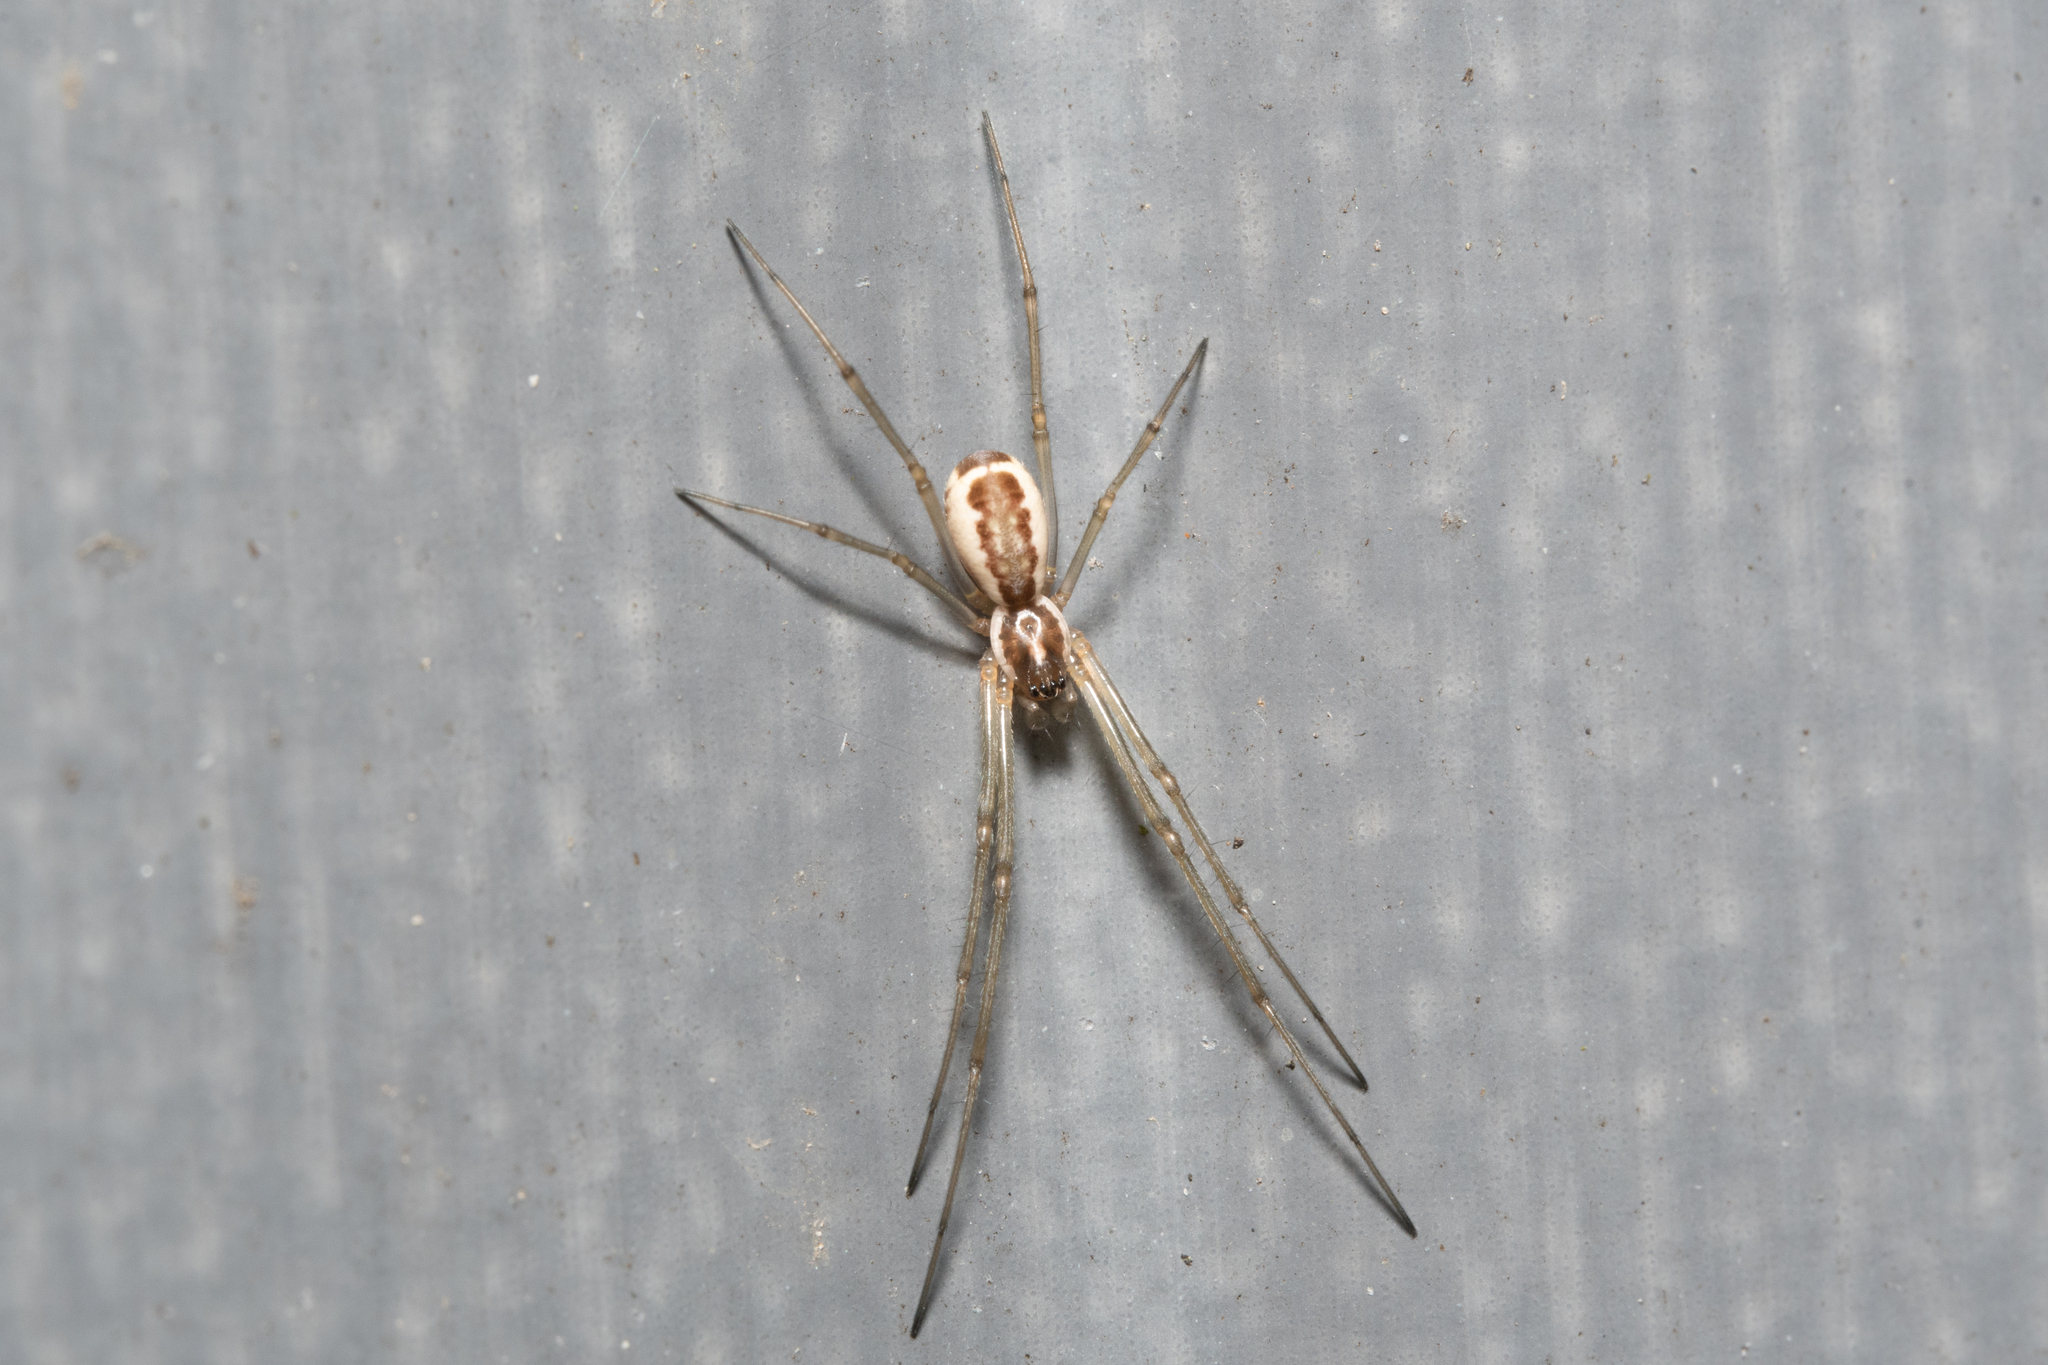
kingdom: Animalia
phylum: Arthropoda
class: Arachnida
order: Araneae
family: Linyphiidae
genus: Neriene
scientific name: Neriene radiata
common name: Filmy dome spider
